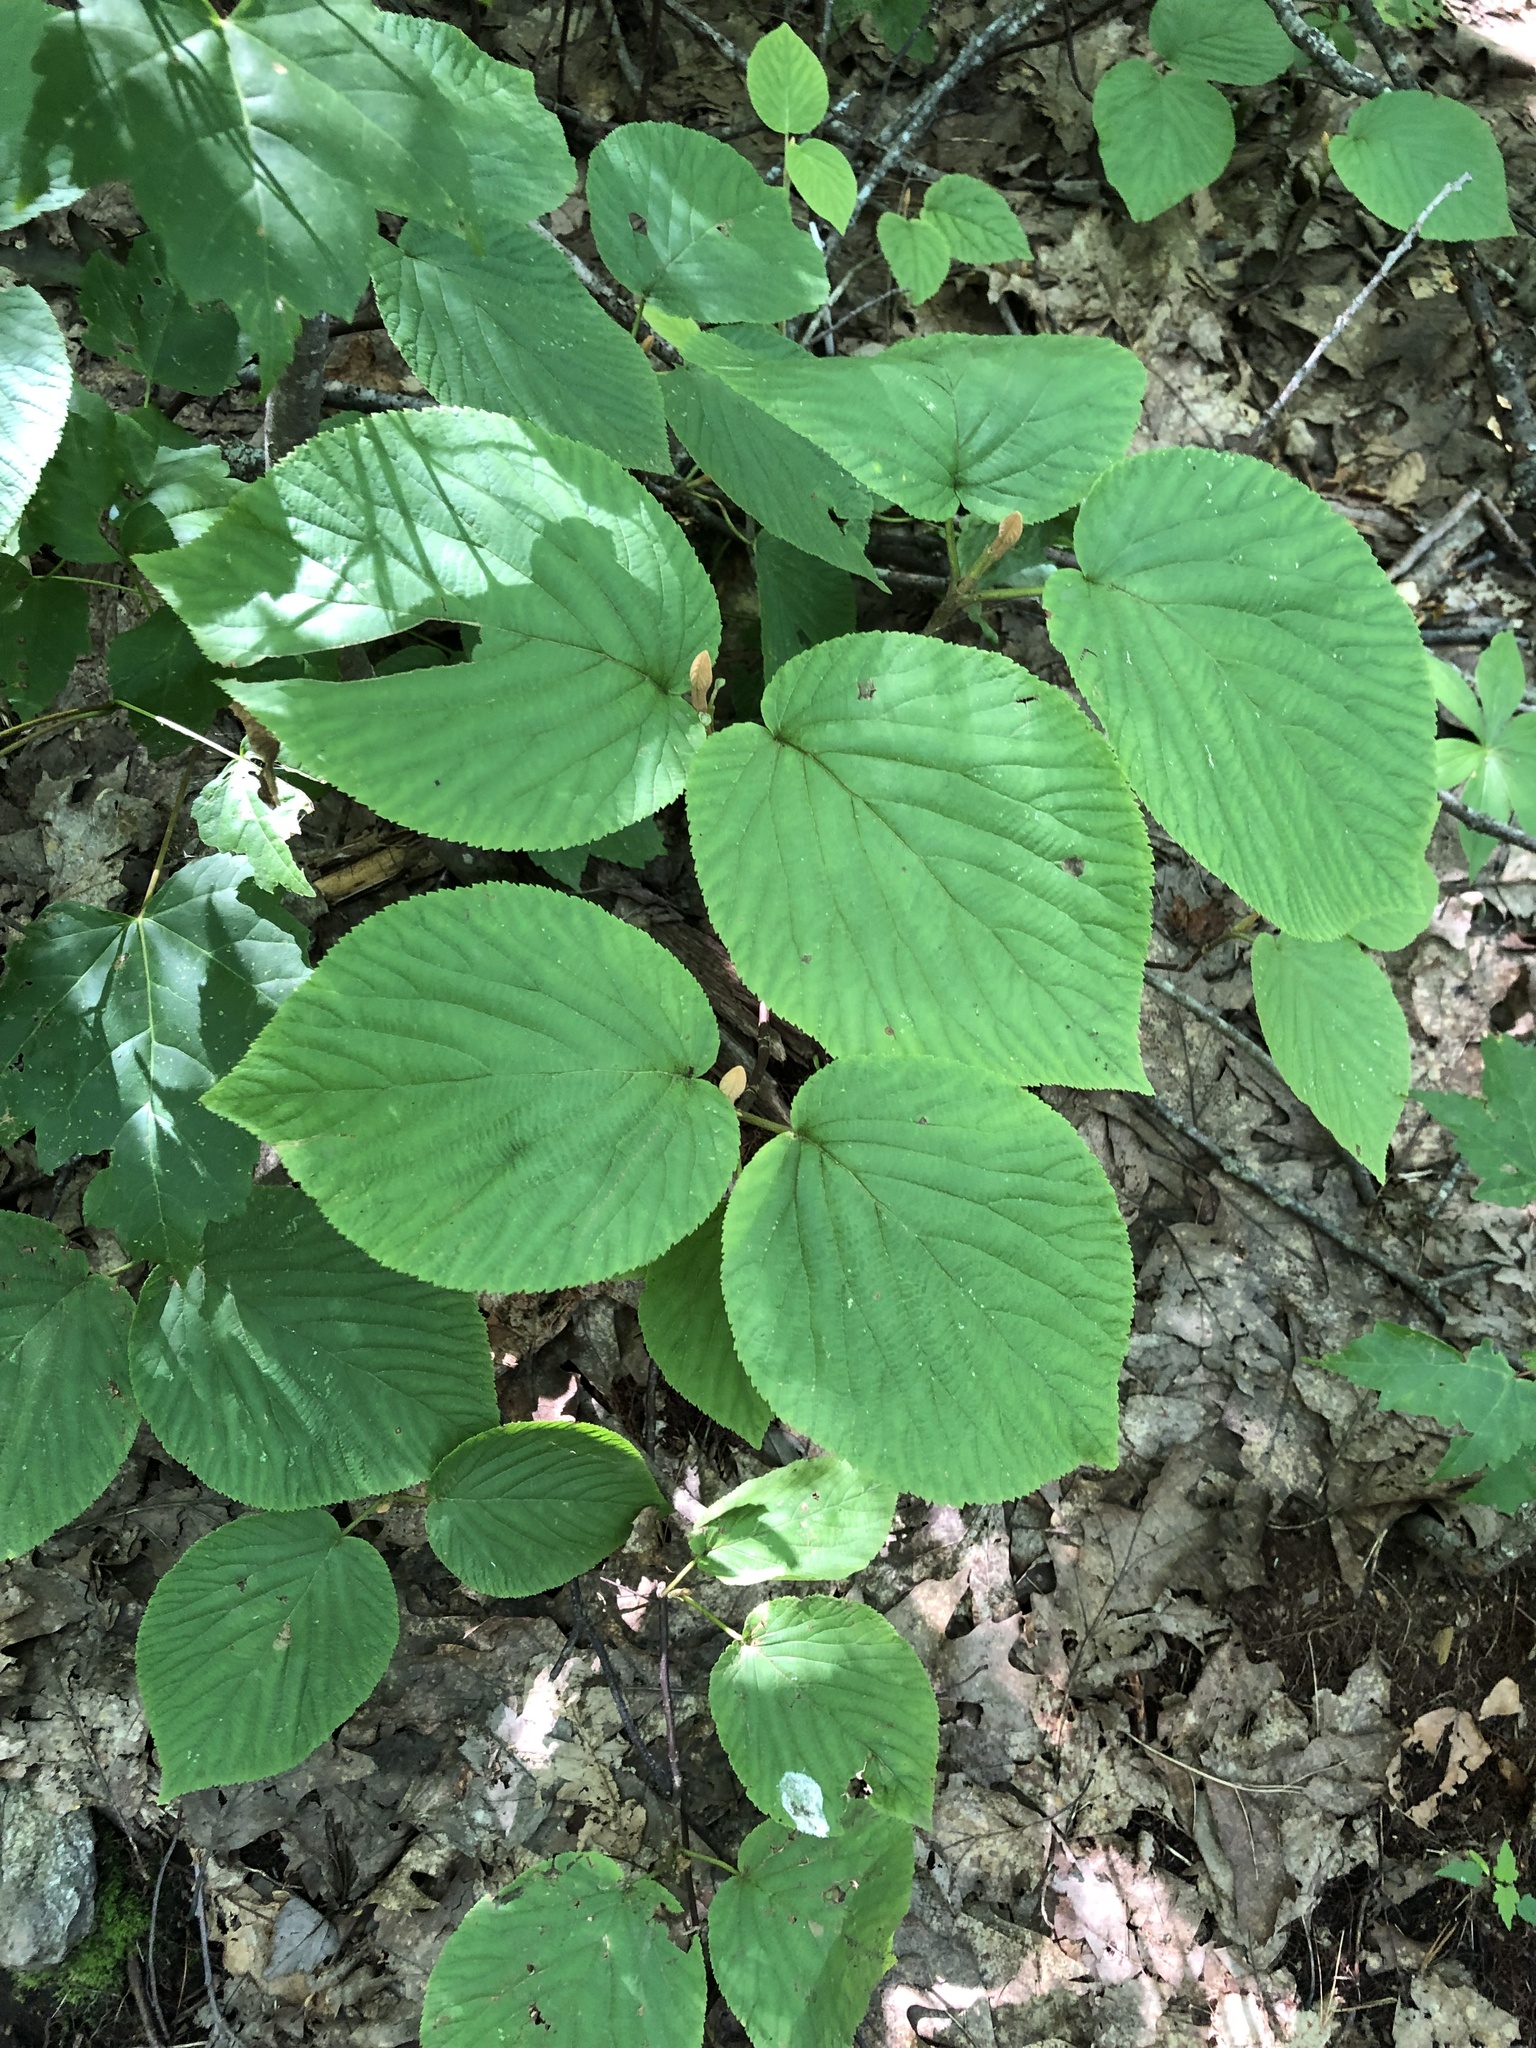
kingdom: Plantae
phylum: Tracheophyta
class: Magnoliopsida
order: Dipsacales
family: Viburnaceae
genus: Viburnum
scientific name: Viburnum lantanoides
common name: Hobblebush
